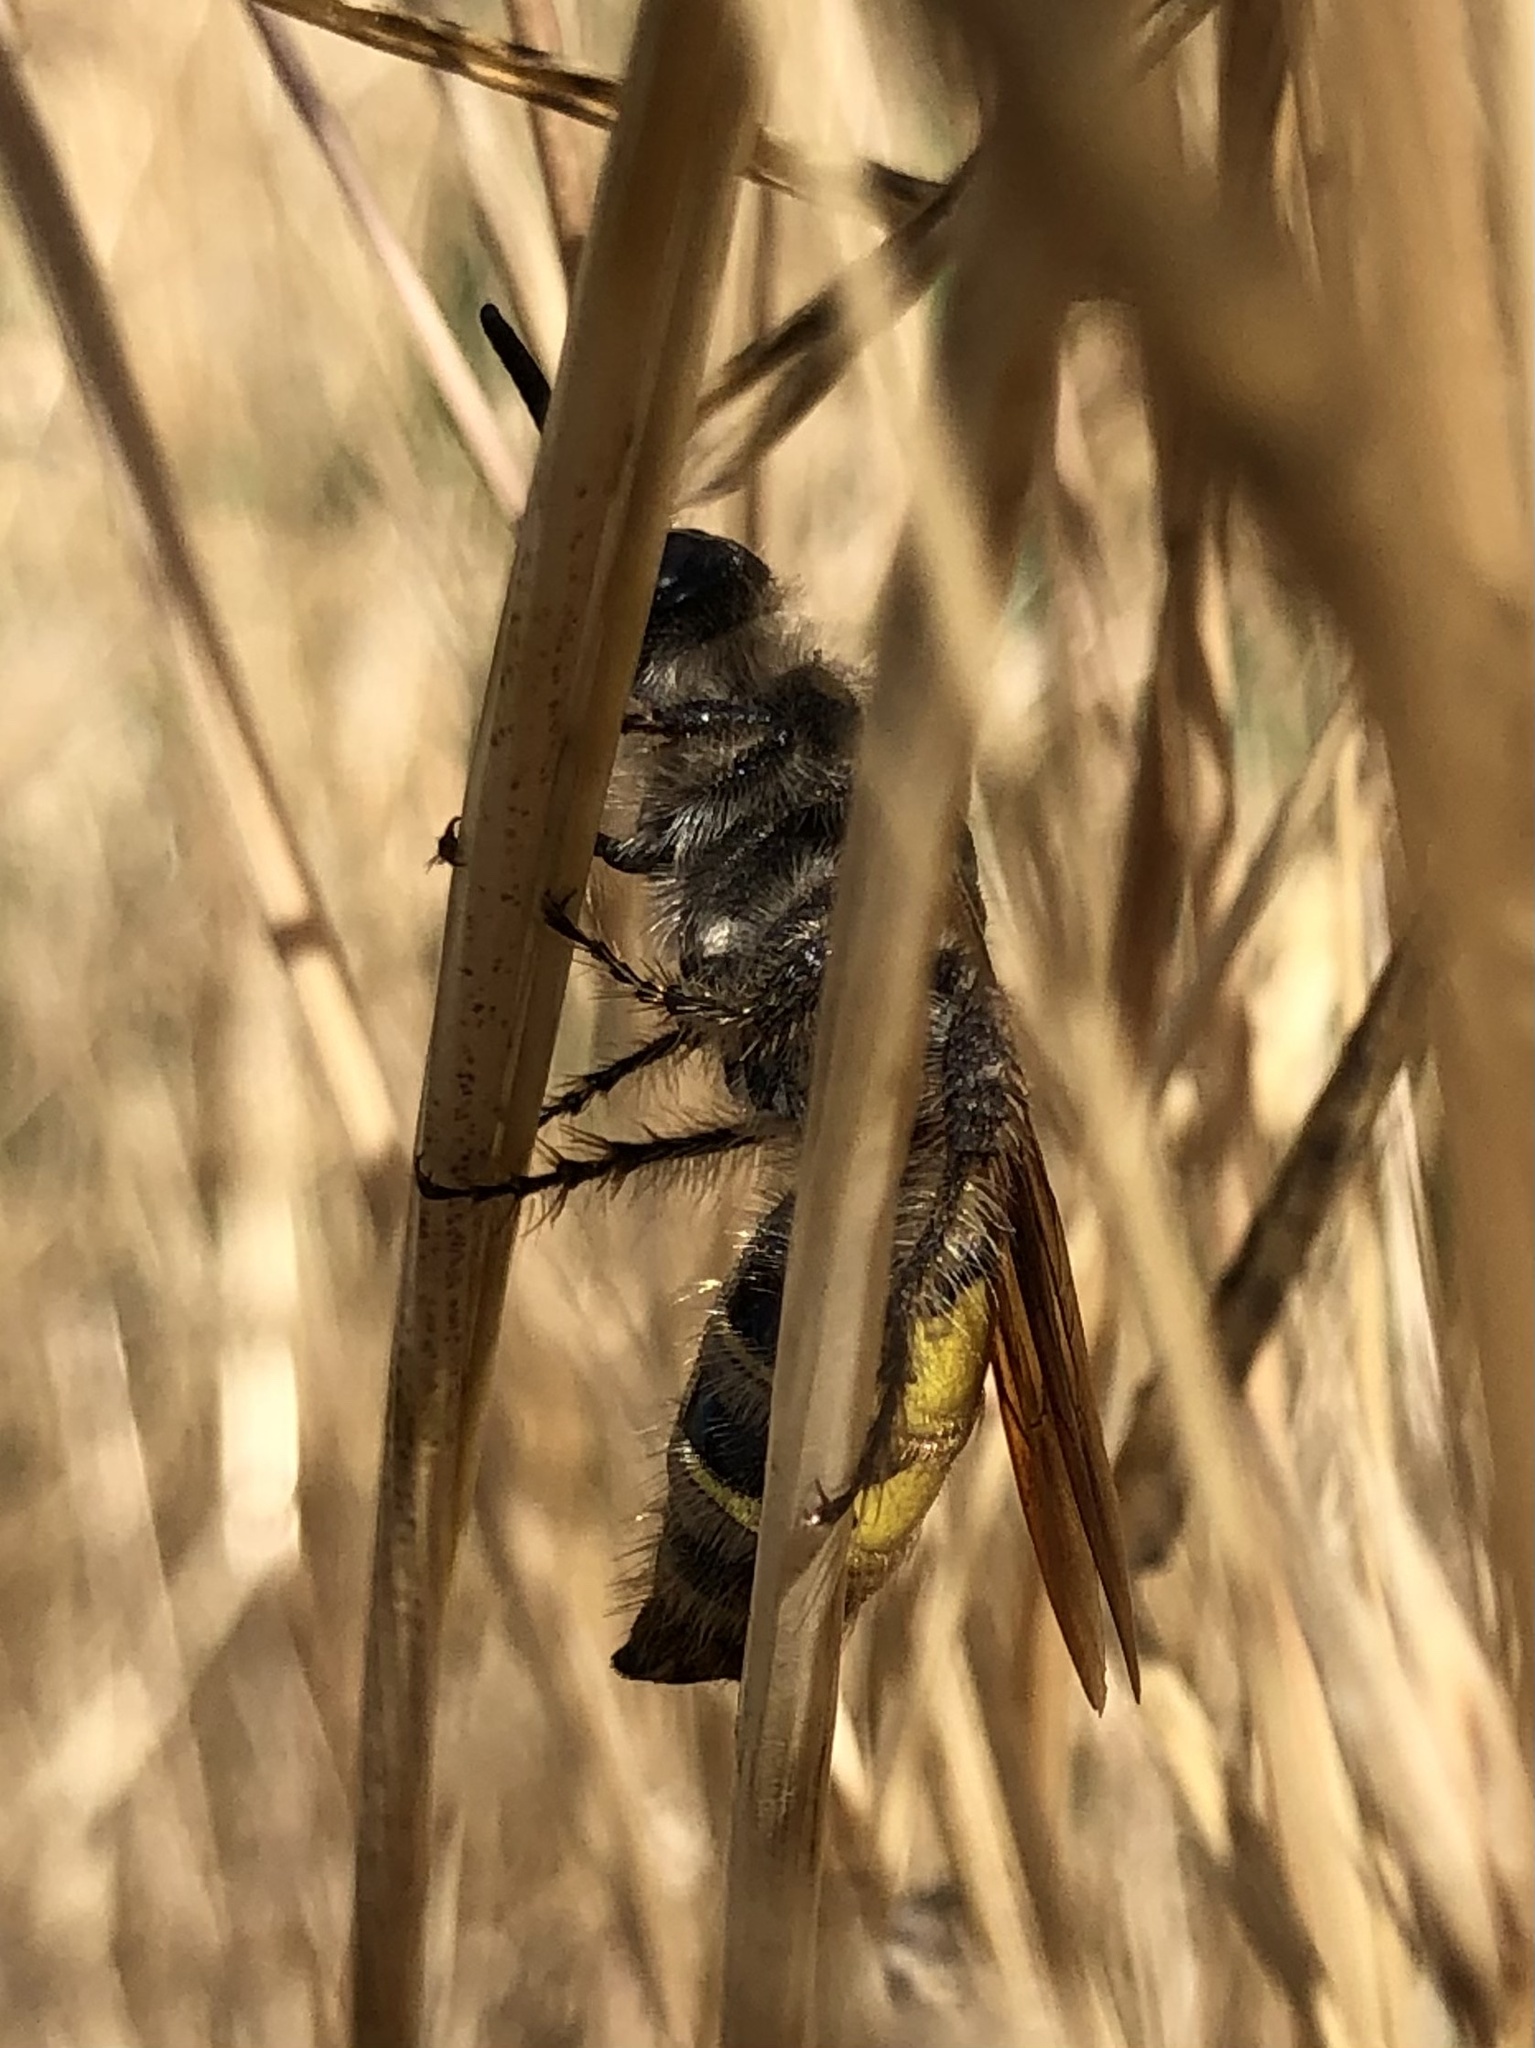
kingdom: Animalia
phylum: Arthropoda
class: Insecta
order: Hymenoptera
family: Scoliidae
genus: Dielis
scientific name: Dielis tolteca
